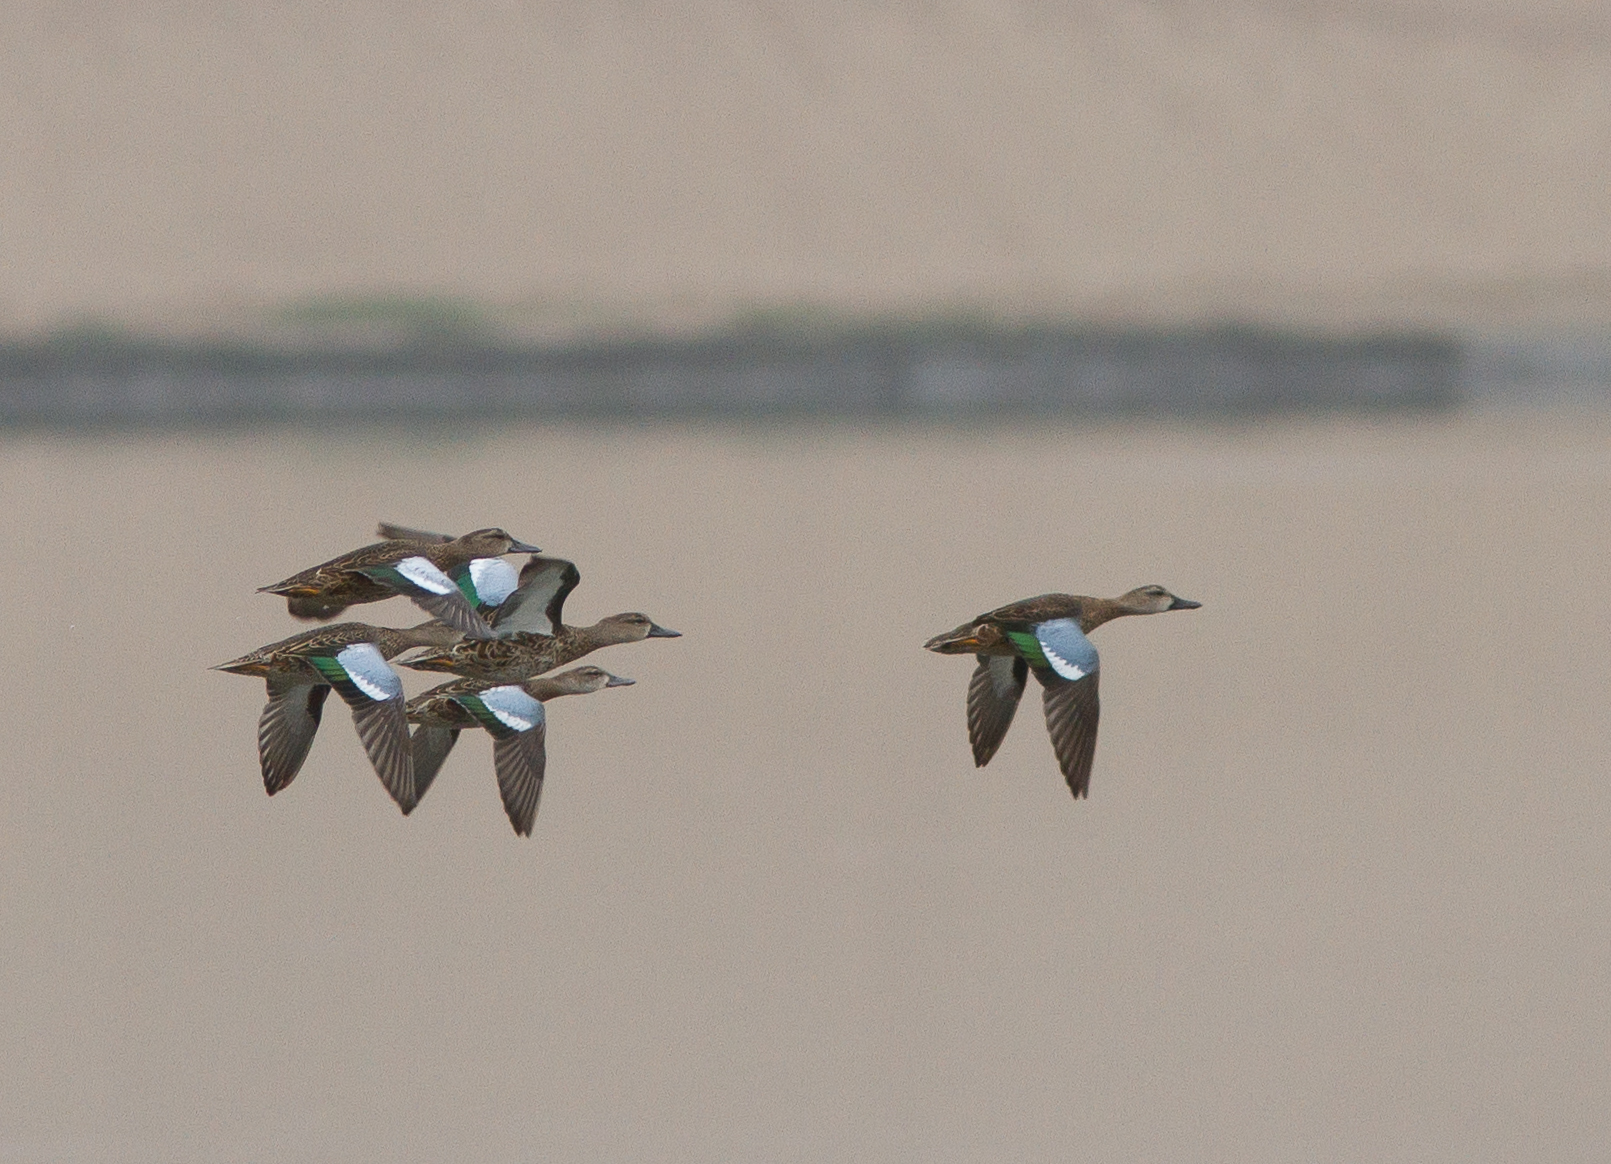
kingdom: Animalia
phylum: Chordata
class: Aves
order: Anseriformes
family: Anatidae
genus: Spatula
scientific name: Spatula discors
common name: Blue-winged teal
